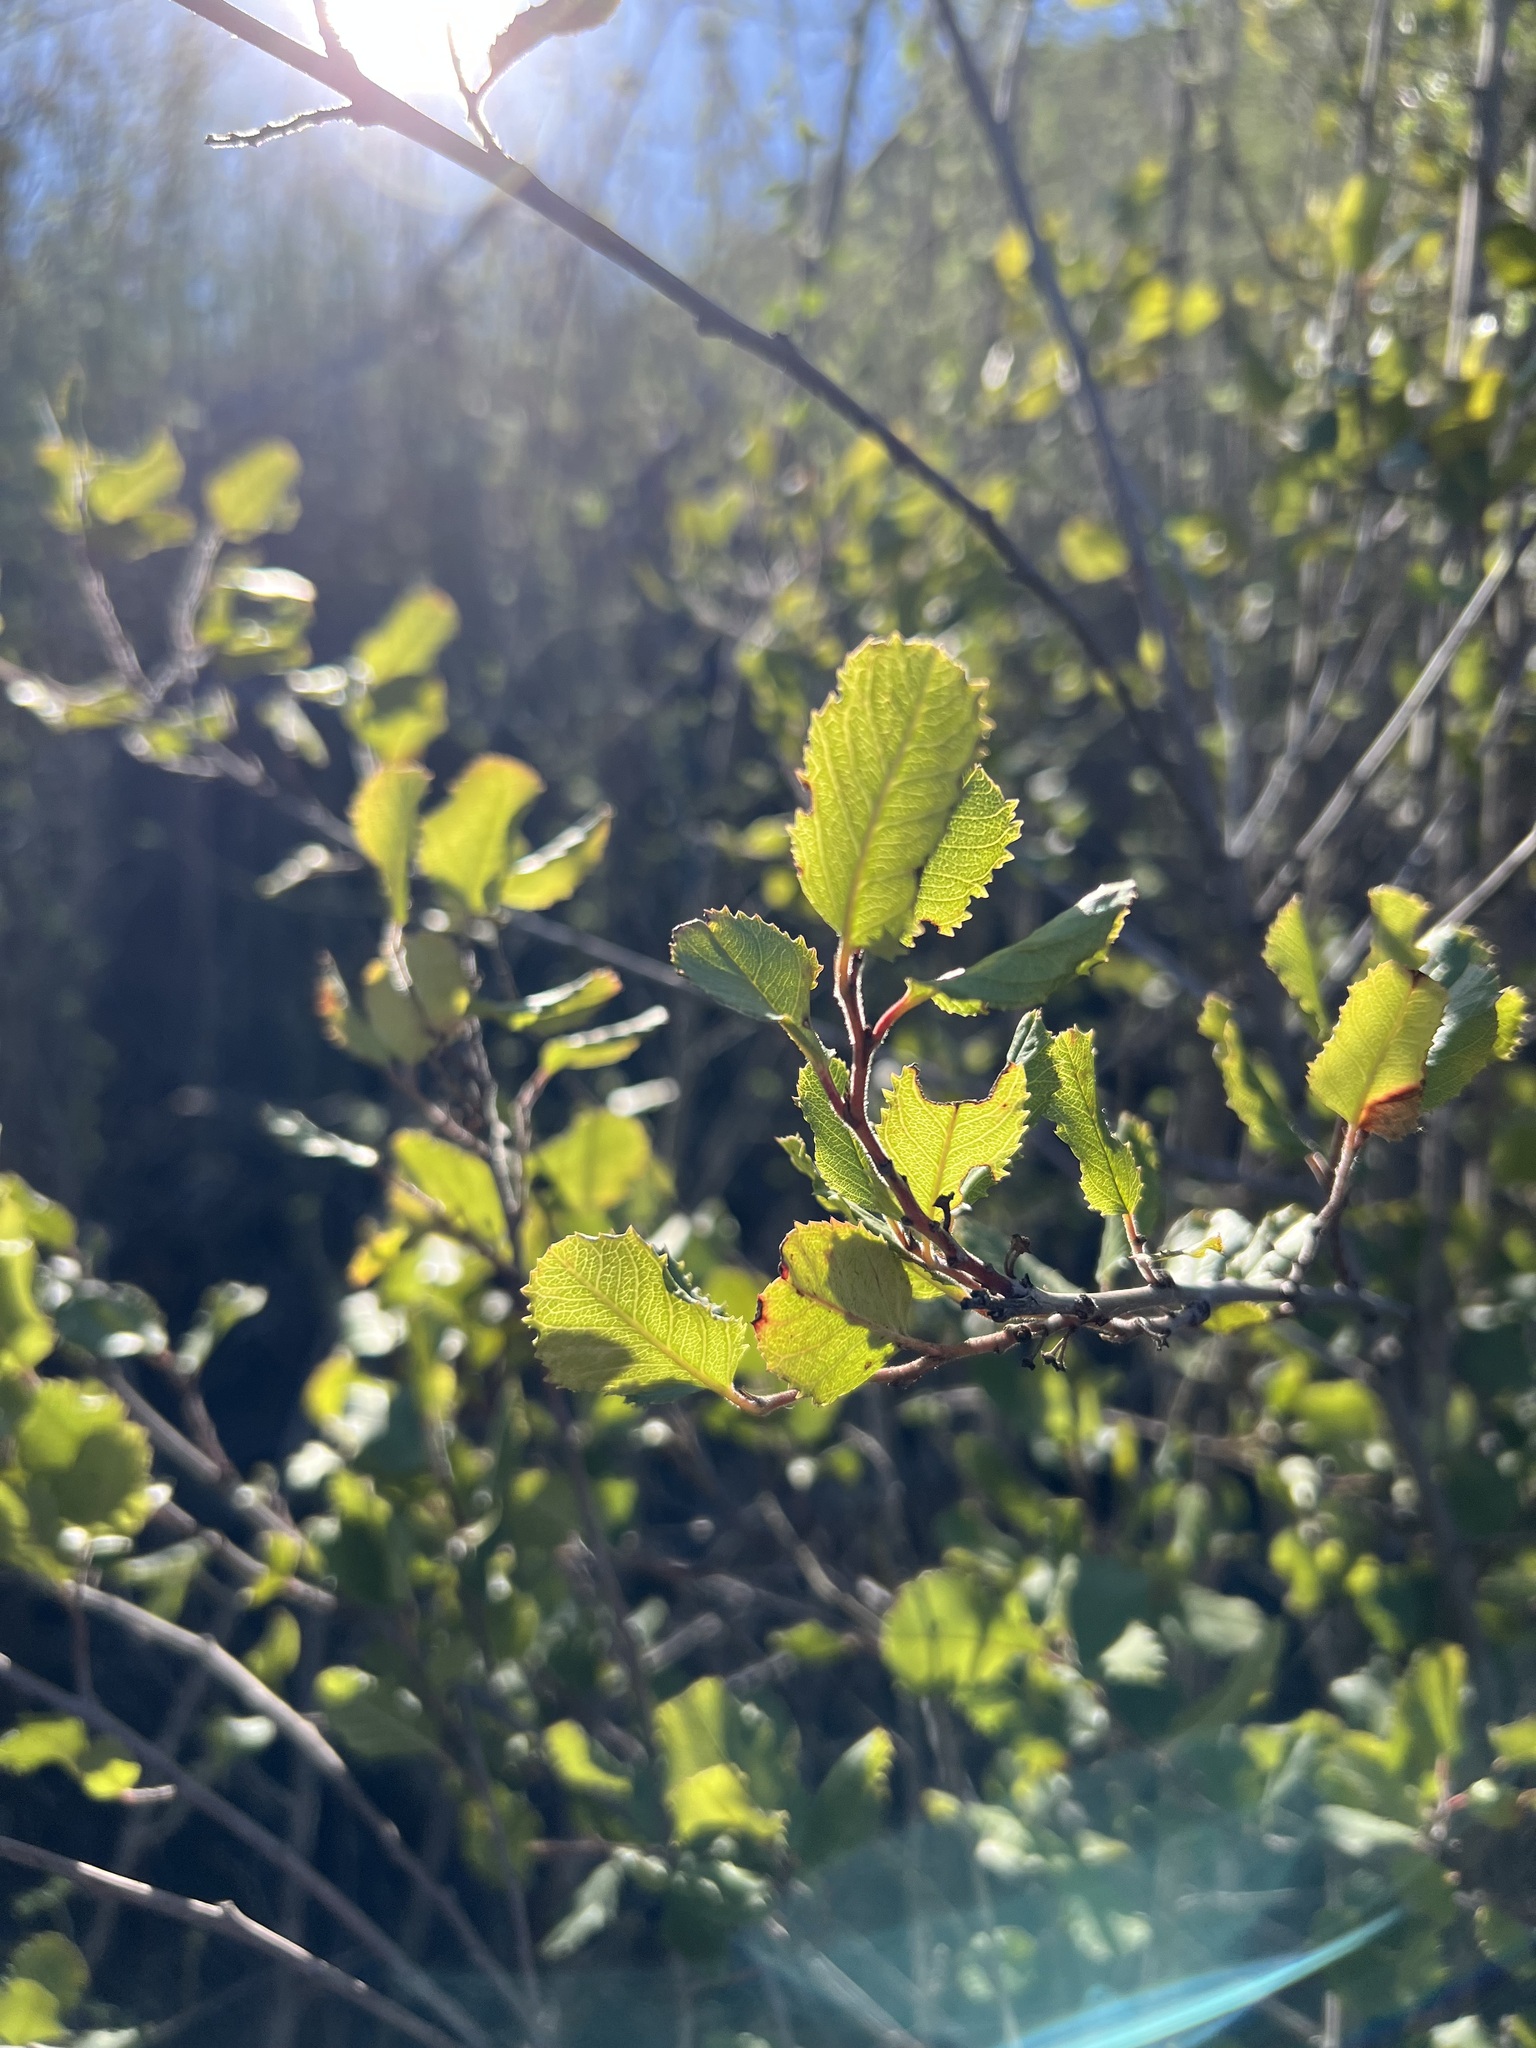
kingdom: Plantae
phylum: Tracheophyta
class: Magnoliopsida
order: Rosales
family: Rhamnaceae
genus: Endotropis
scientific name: Endotropis crocea
